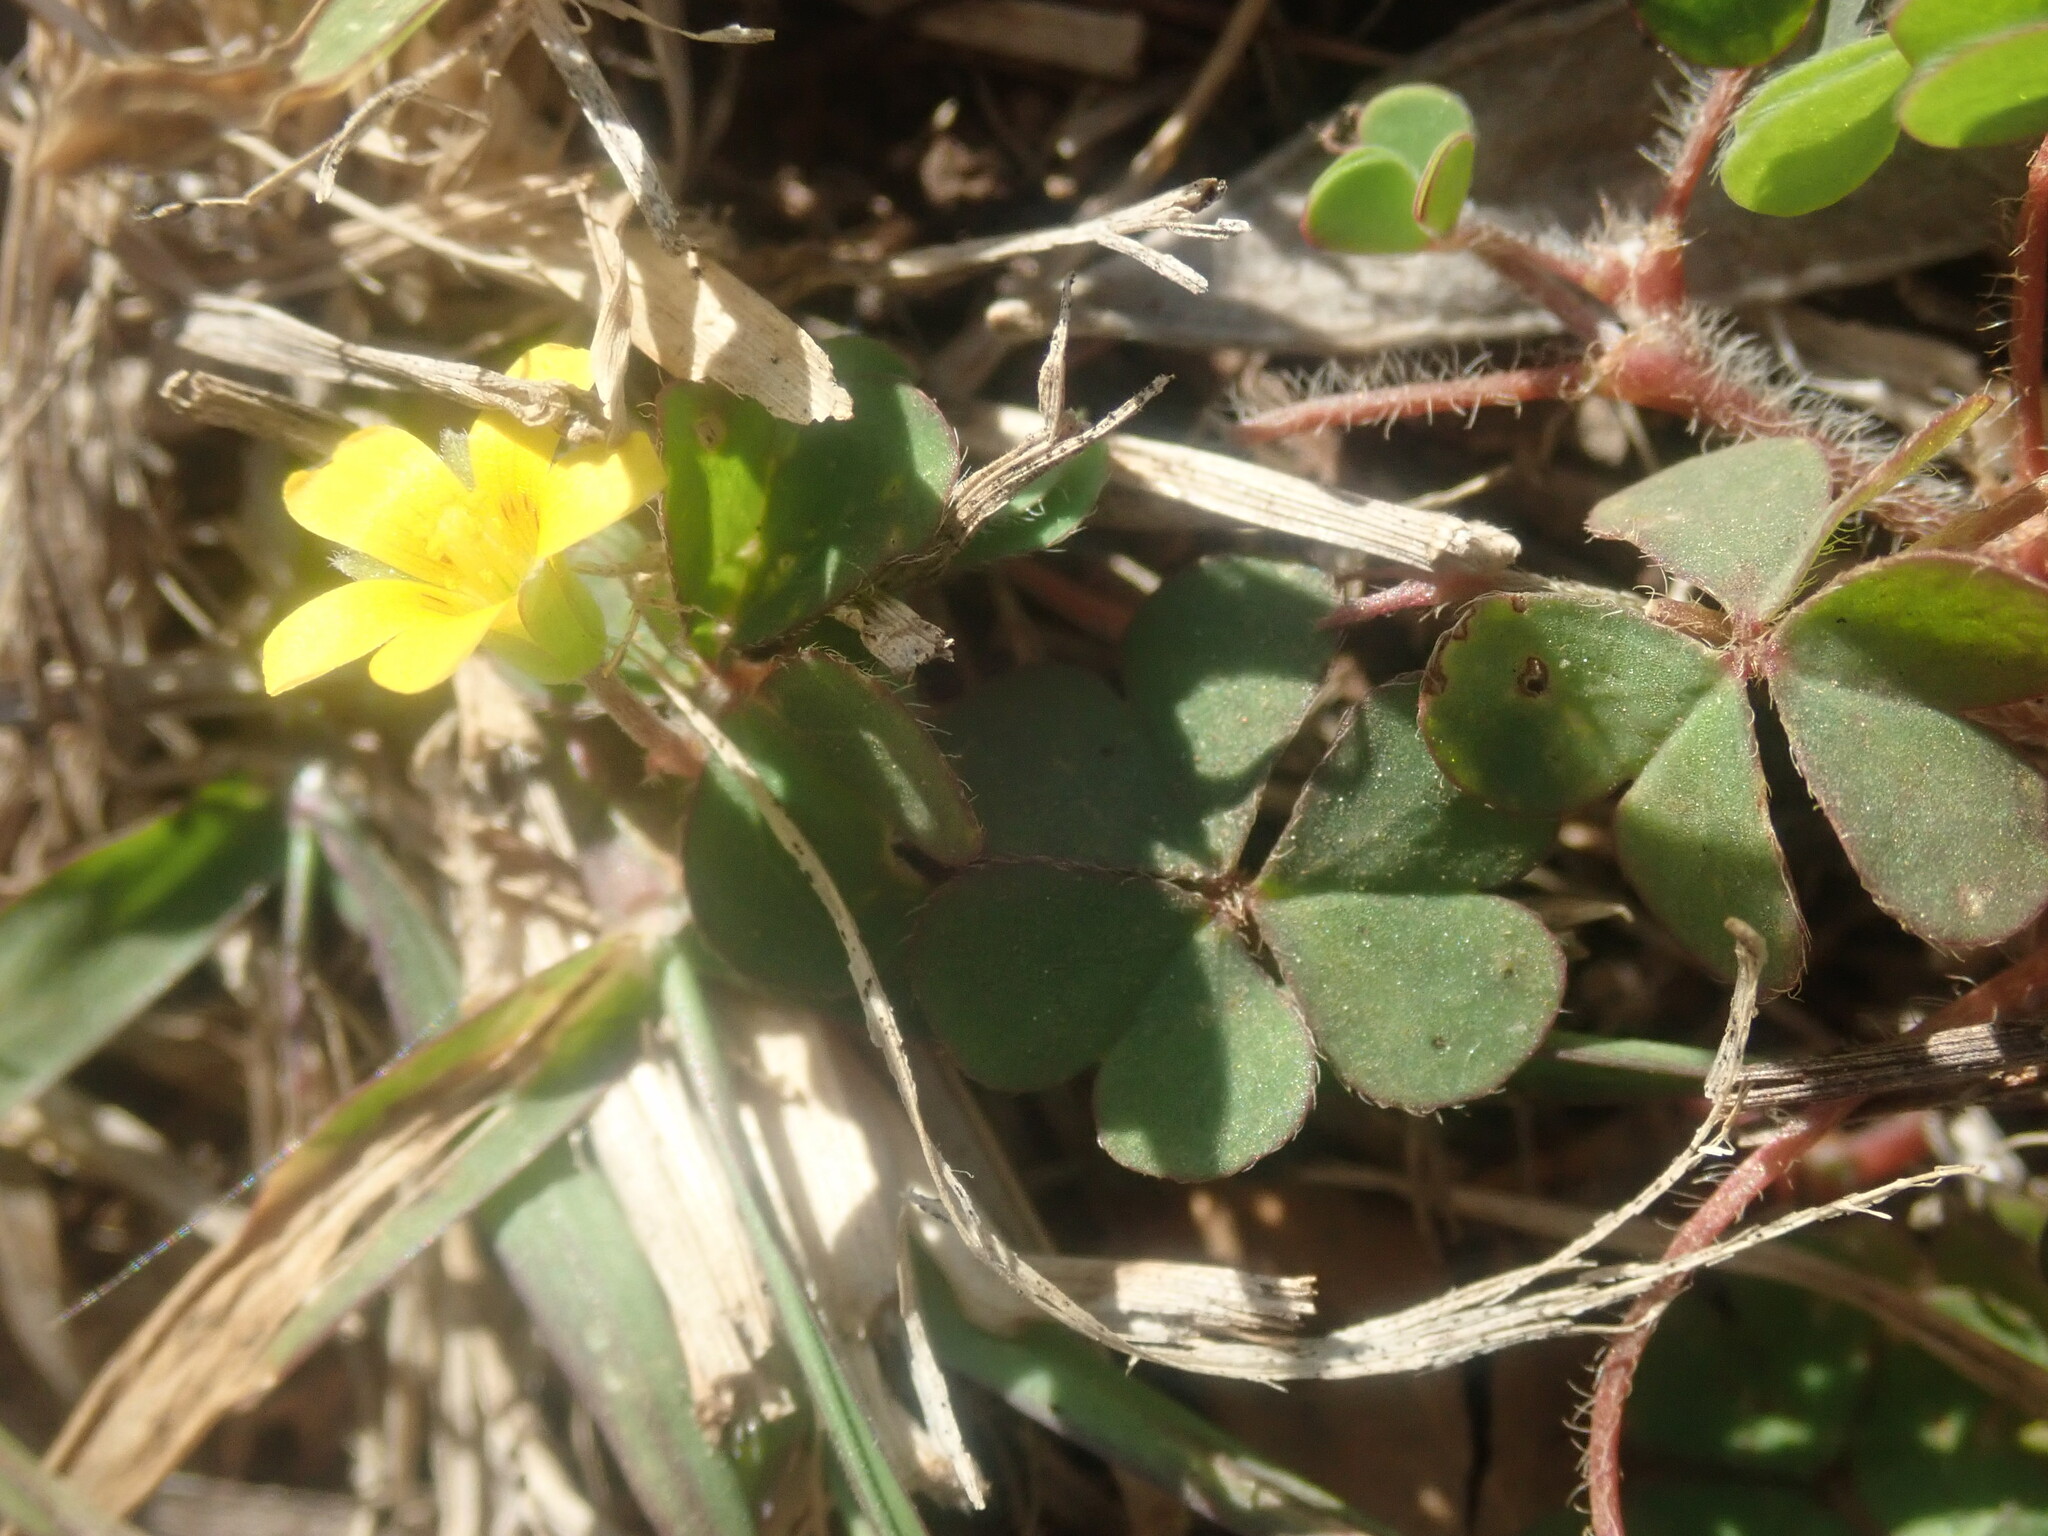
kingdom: Plantae
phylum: Tracheophyta
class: Magnoliopsida
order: Oxalidales
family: Oxalidaceae
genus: Oxalis
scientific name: Oxalis corniculata
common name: Procumbent yellow-sorrel
